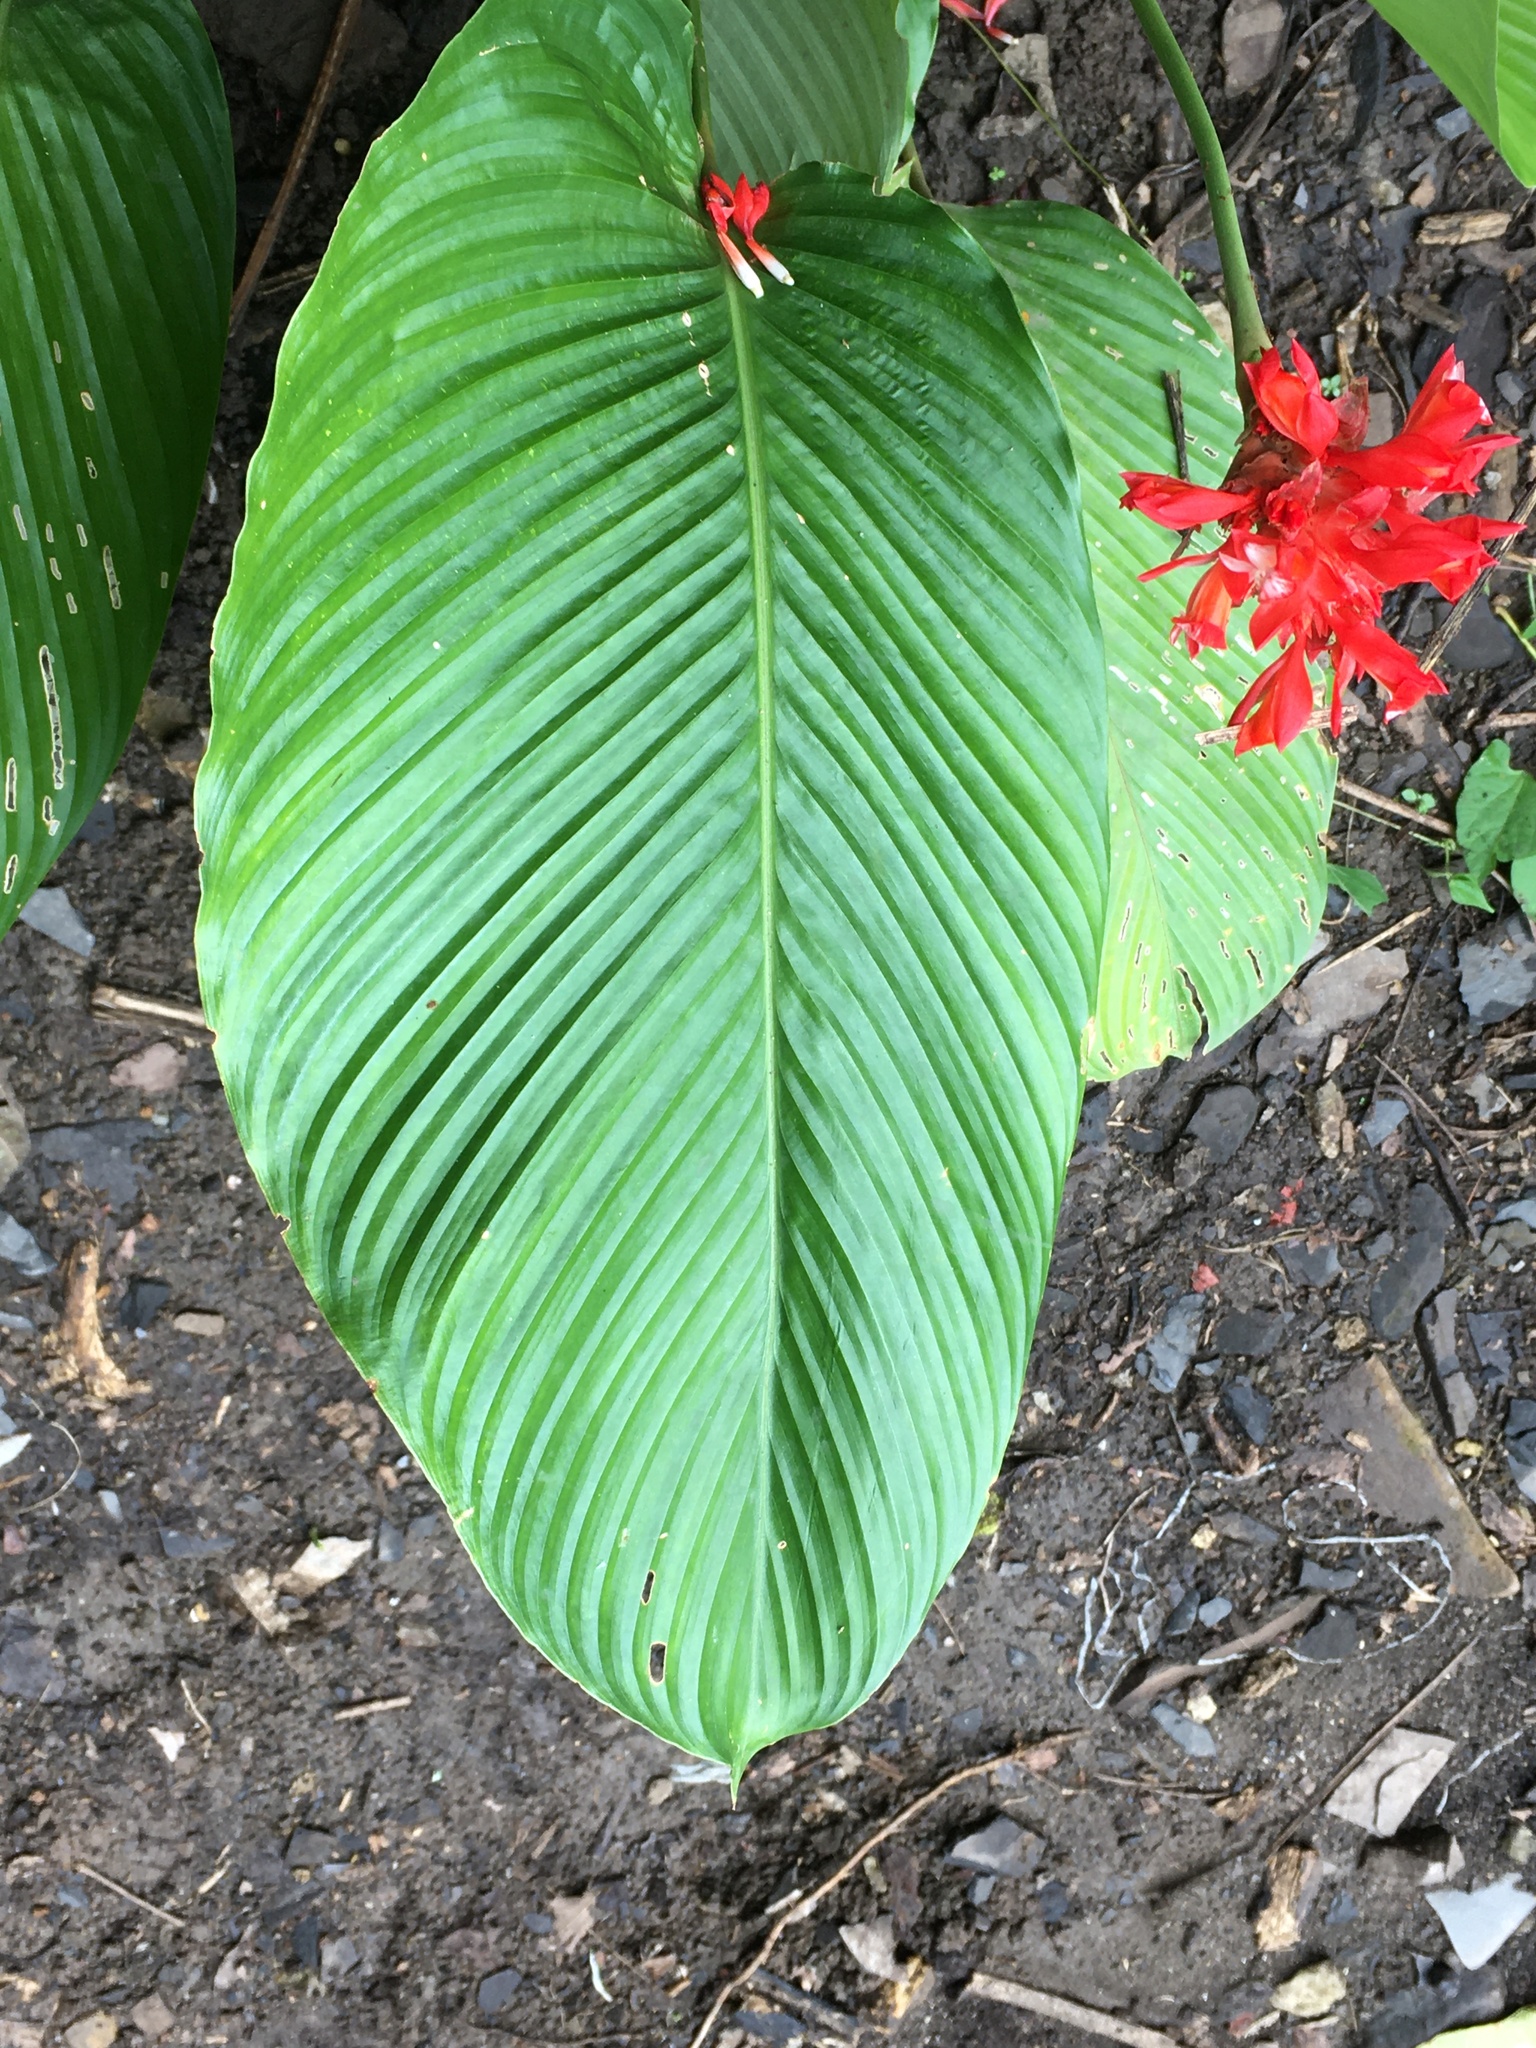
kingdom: Plantae
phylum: Tracheophyta
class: Liliopsida
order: Zingiberales
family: Marantaceae
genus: Goeppertia
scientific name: Goeppertia coccinea
